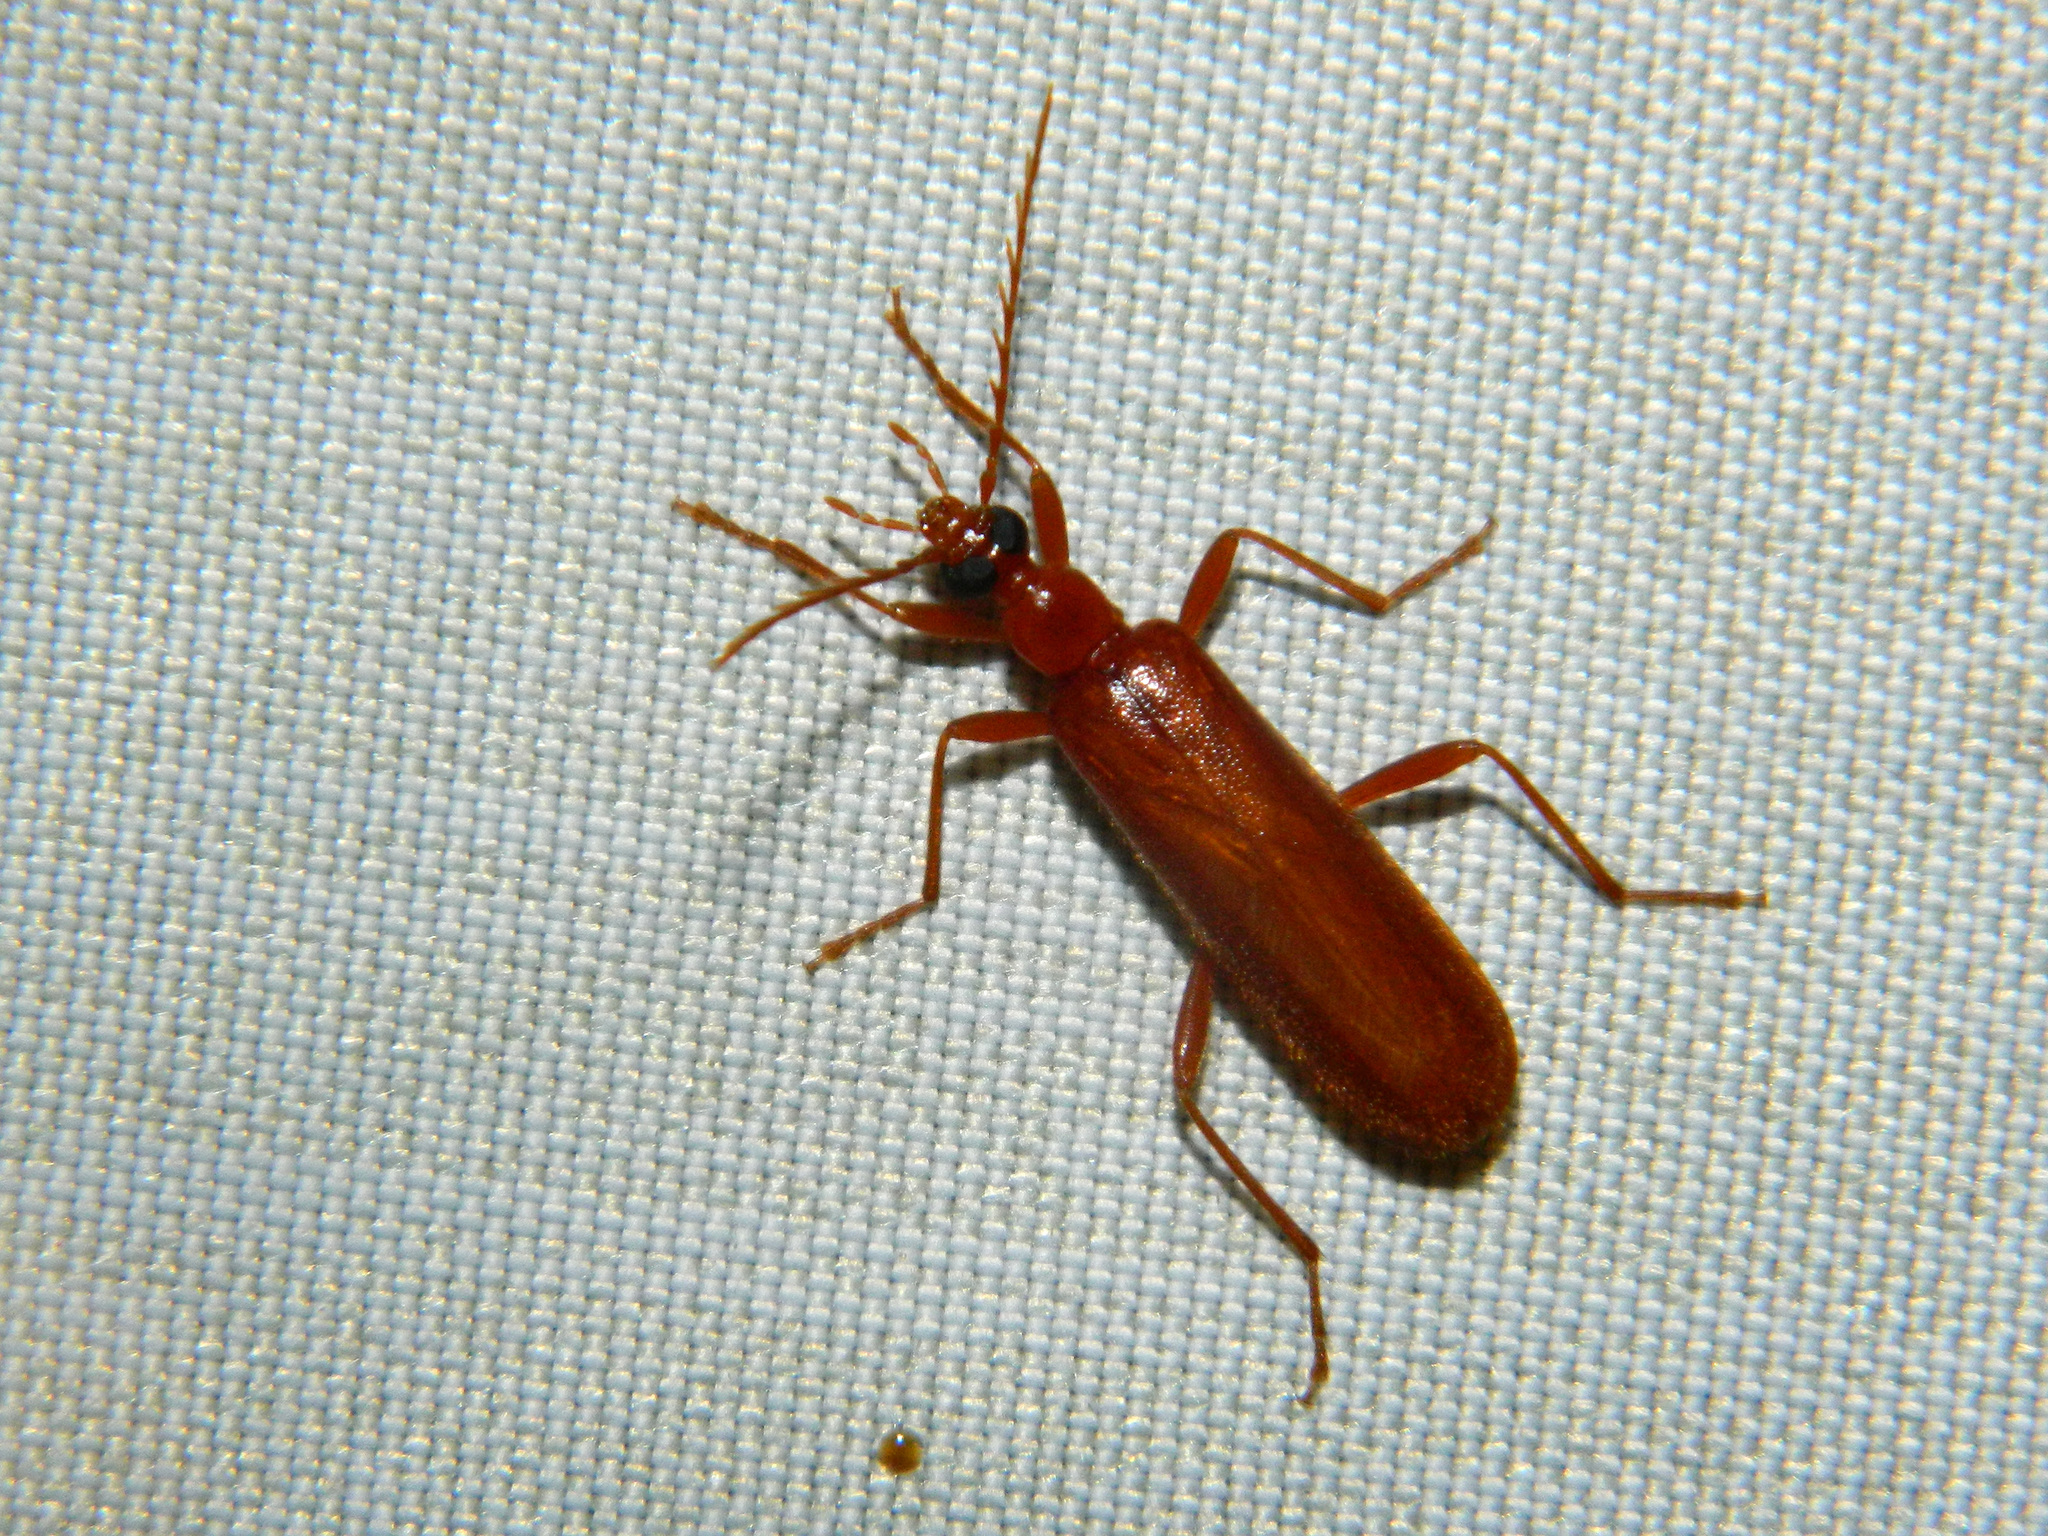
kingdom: Animalia
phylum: Arthropoda
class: Insecta
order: Coleoptera
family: Pyrochroidae
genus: Dendroides
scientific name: Dendroides concolor
